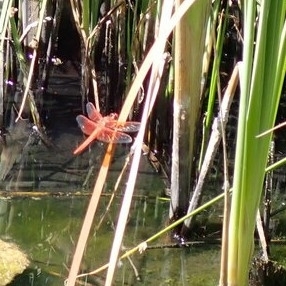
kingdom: Animalia
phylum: Arthropoda
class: Insecta
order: Odonata
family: Libellulidae
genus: Libellula
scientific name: Libellula saturata
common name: Flame skimmer
